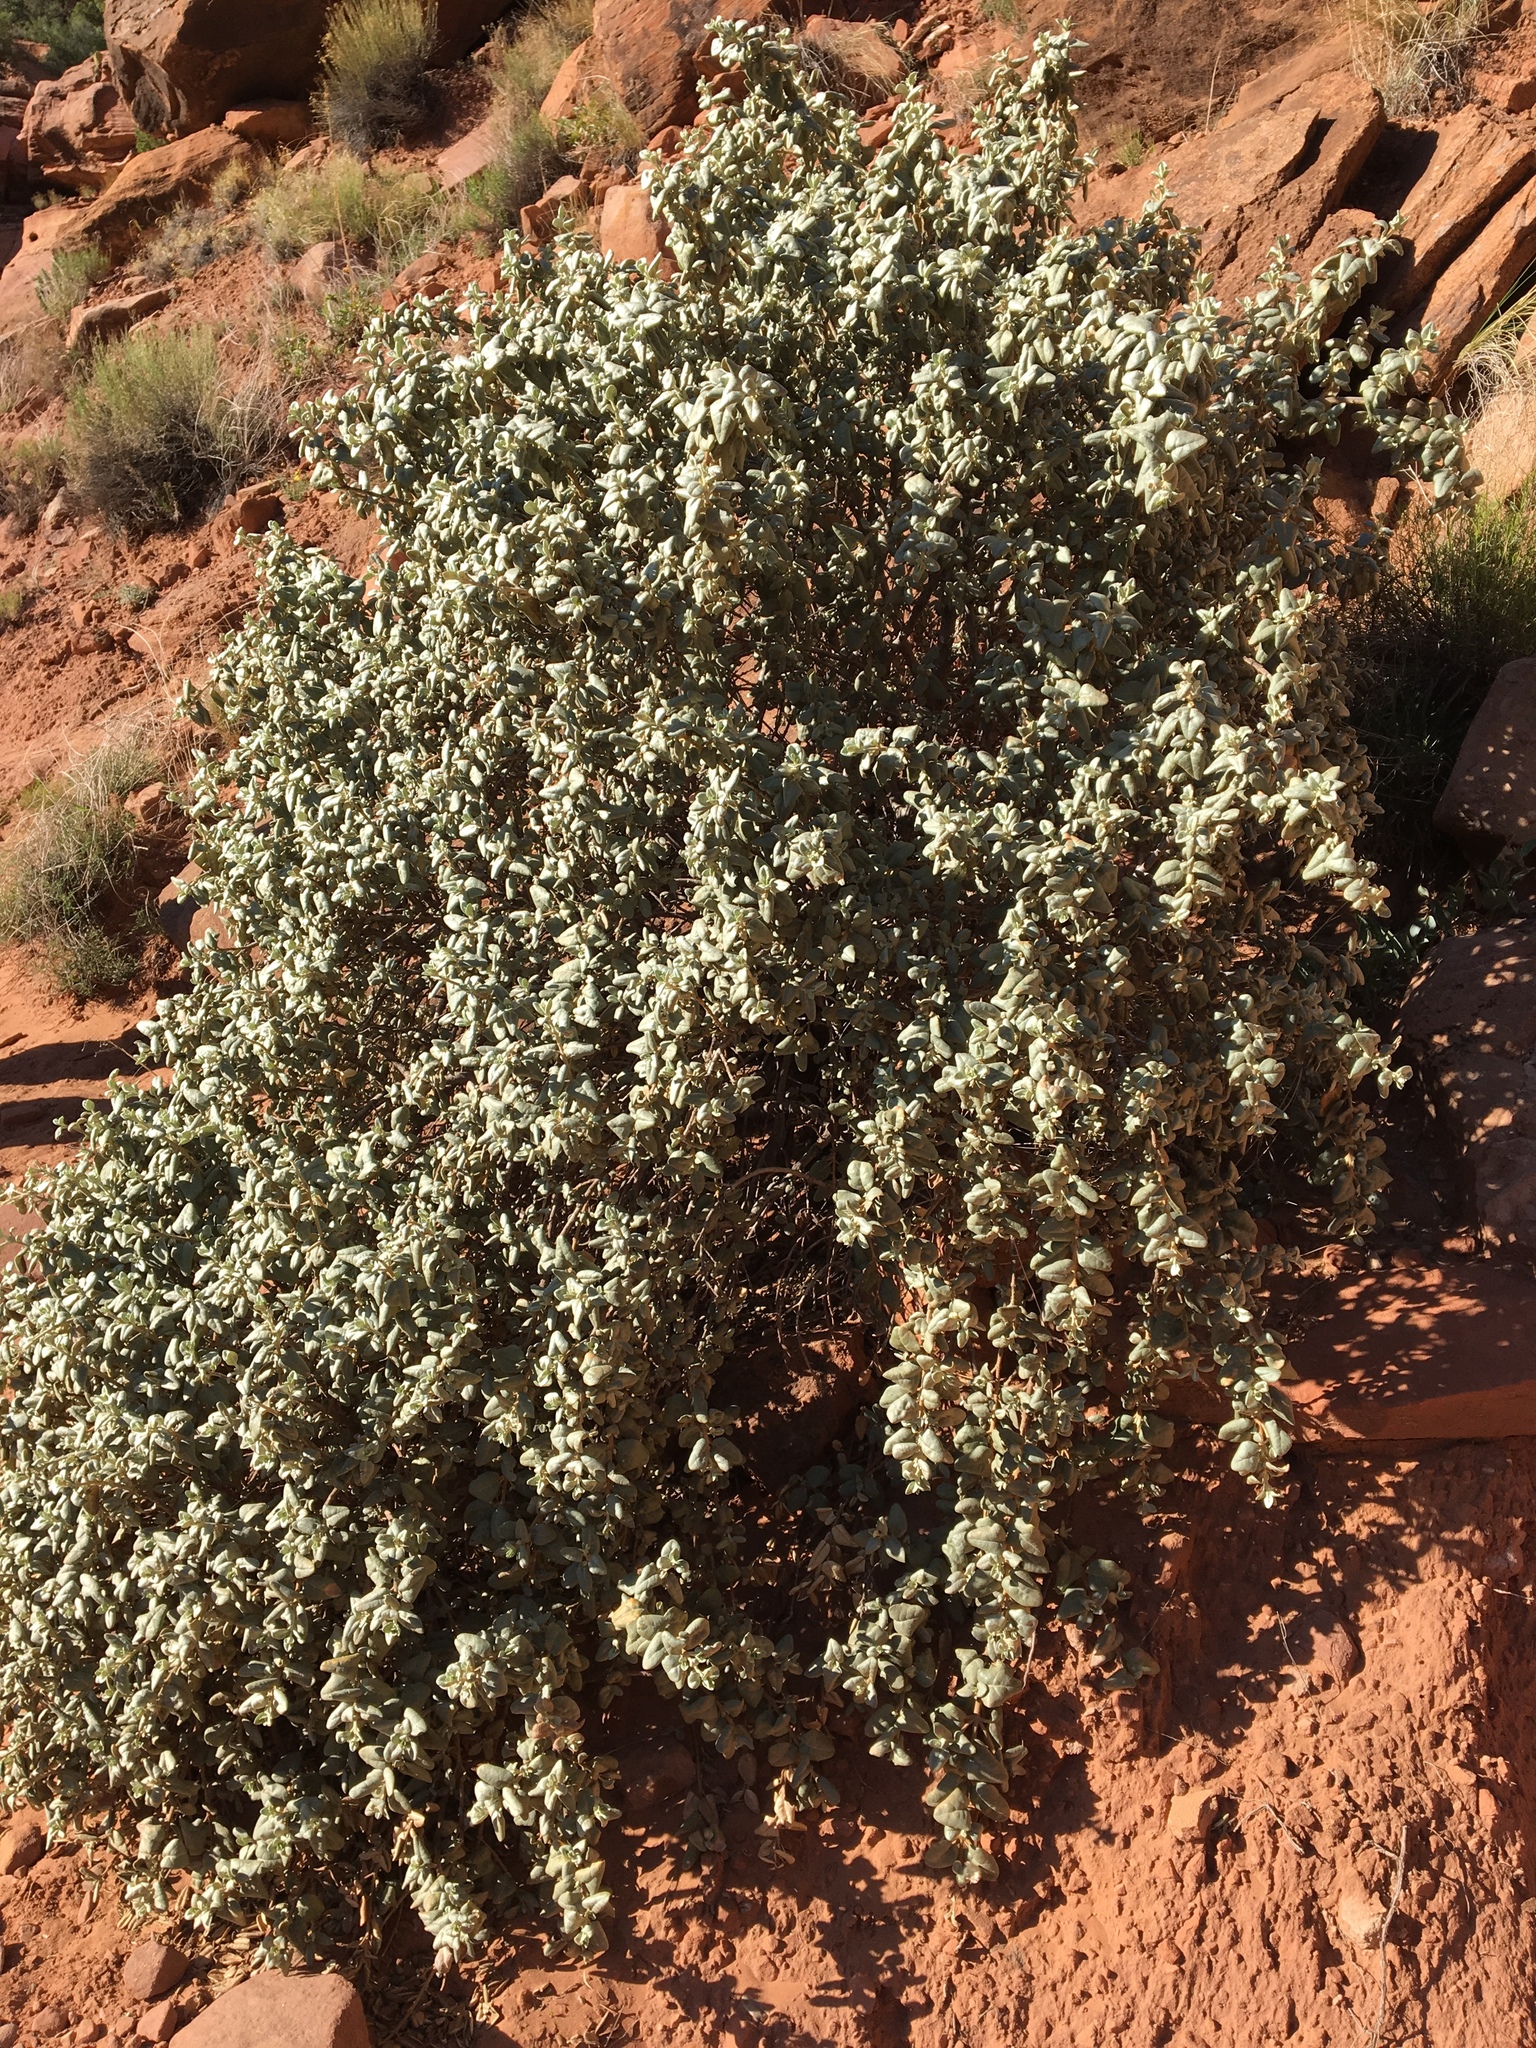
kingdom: Plantae
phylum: Tracheophyta
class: Magnoliopsida
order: Rosales
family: Elaeagnaceae
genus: Shepherdia
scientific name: Shepherdia rotundifolia
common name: Silverscale
